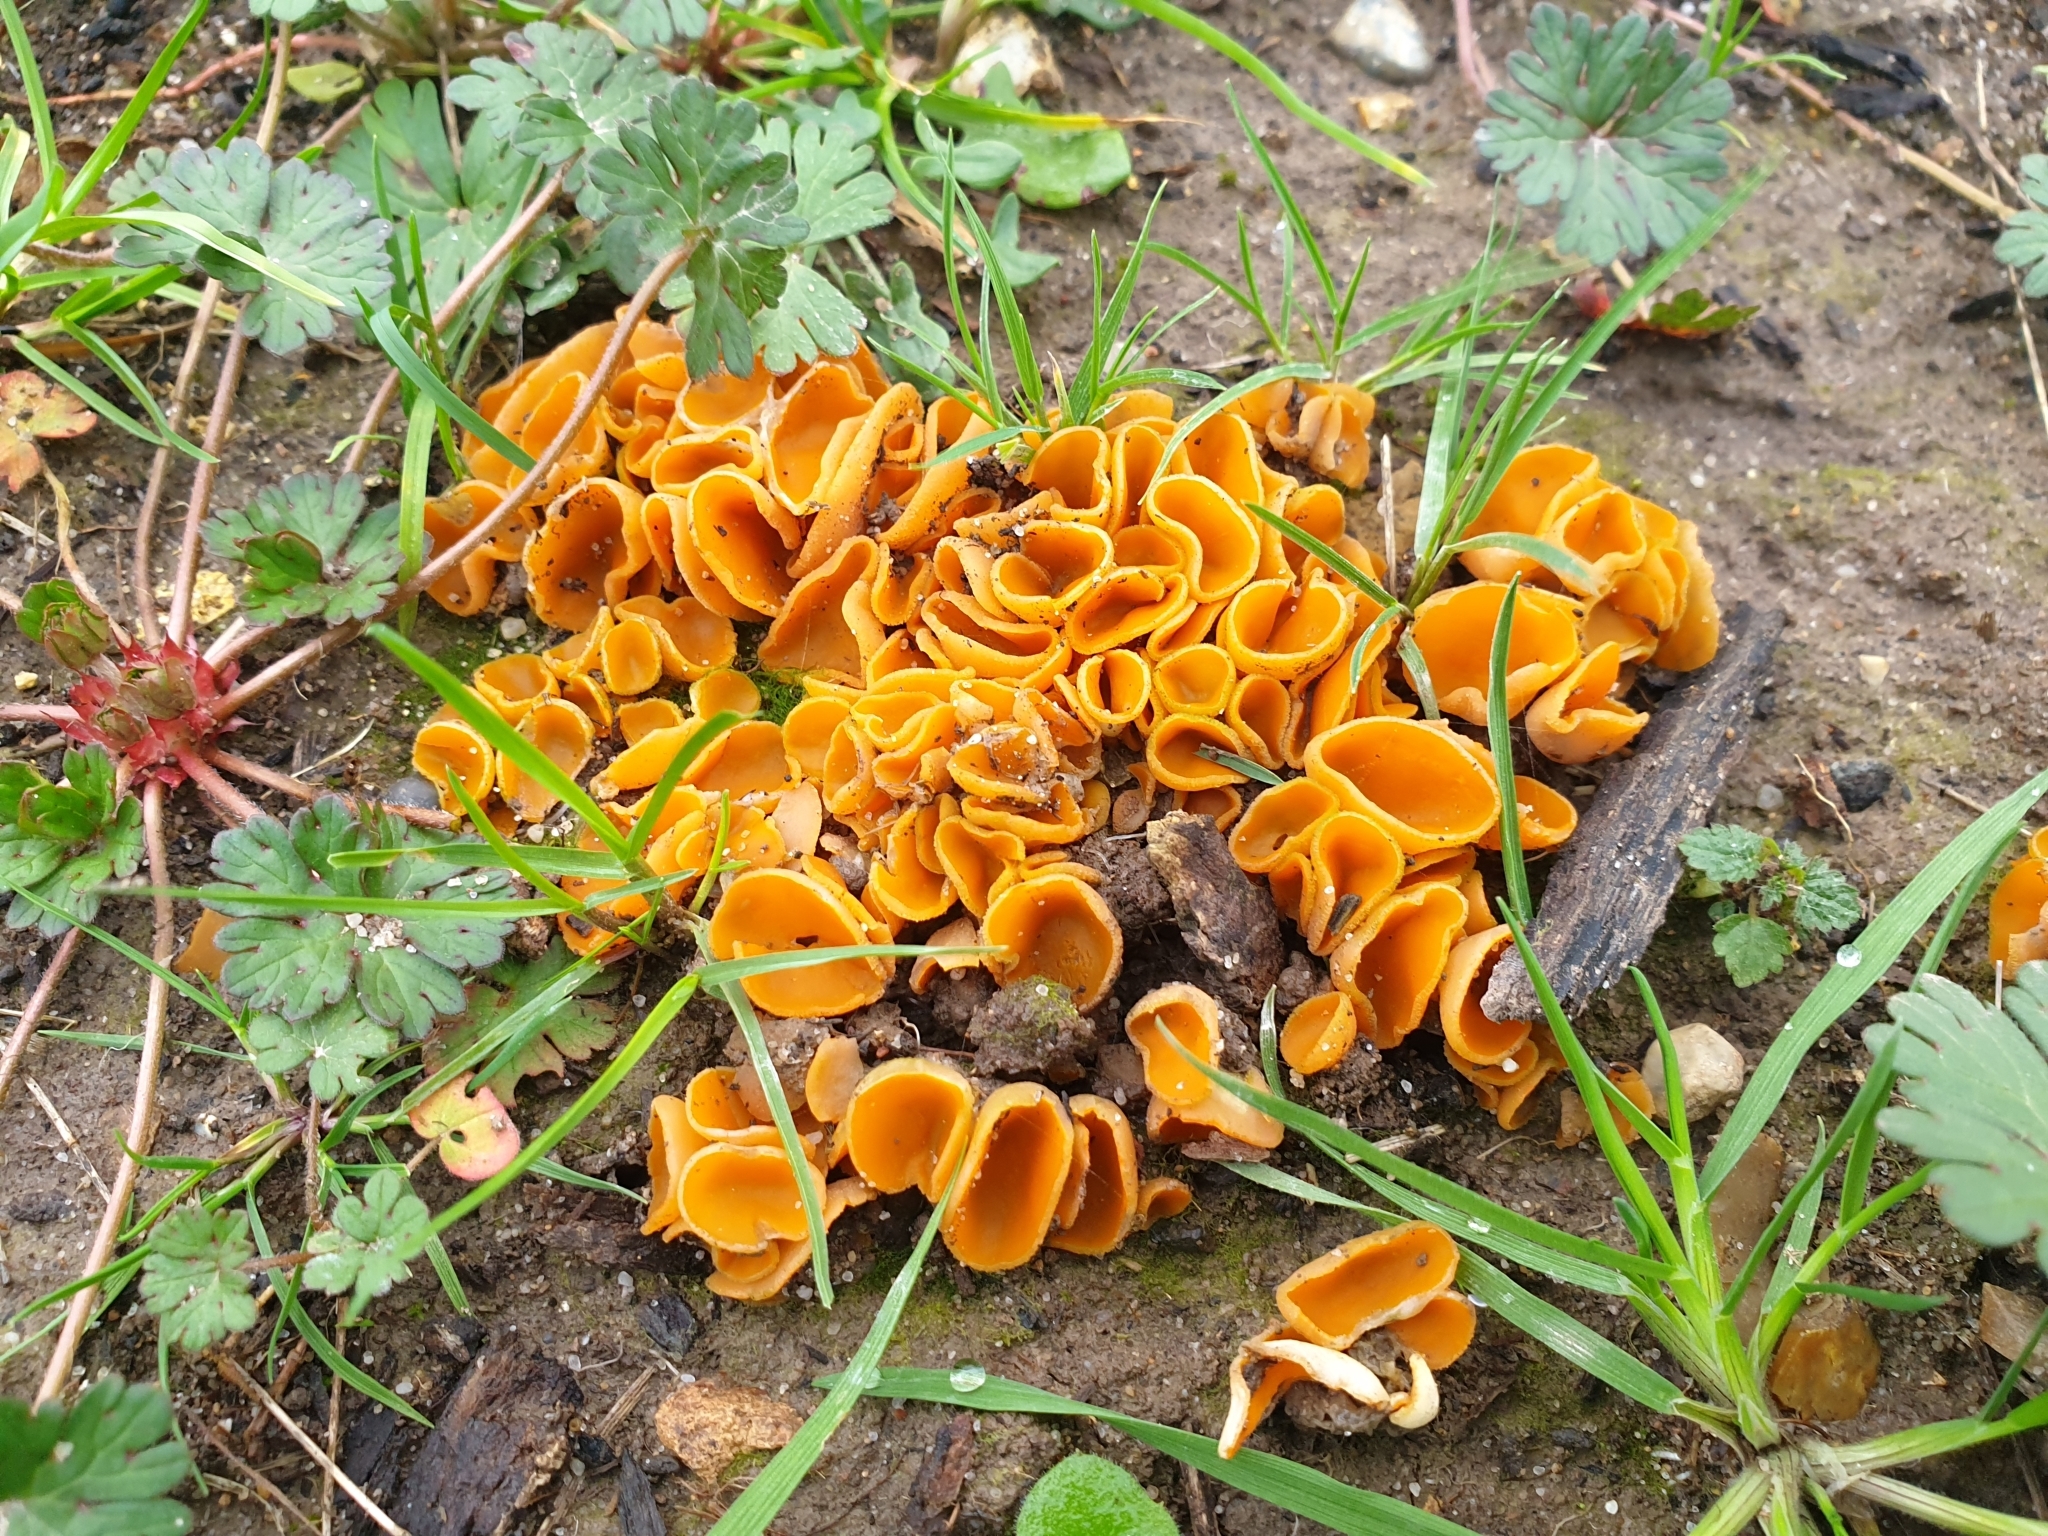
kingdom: Fungi
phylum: Ascomycota
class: Pezizomycetes
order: Pezizales
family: Pyronemataceae
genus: Aleuria
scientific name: Aleuria aurantia
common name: Orange peel fungus
